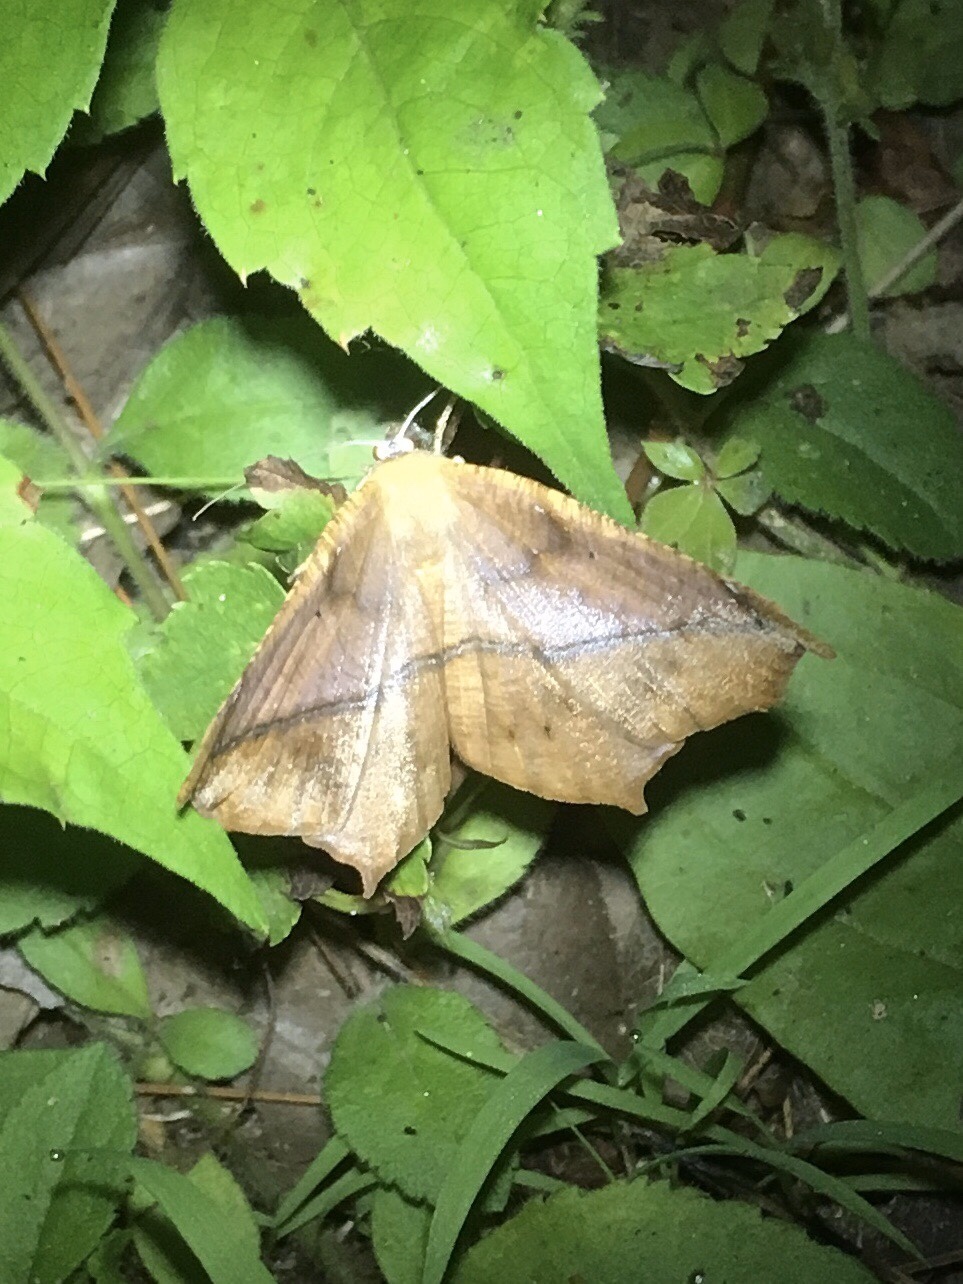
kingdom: Animalia
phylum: Arthropoda
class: Insecta
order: Lepidoptera
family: Geometridae
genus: Prochoerodes
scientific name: Prochoerodes lineola
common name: Large maple spanworm
